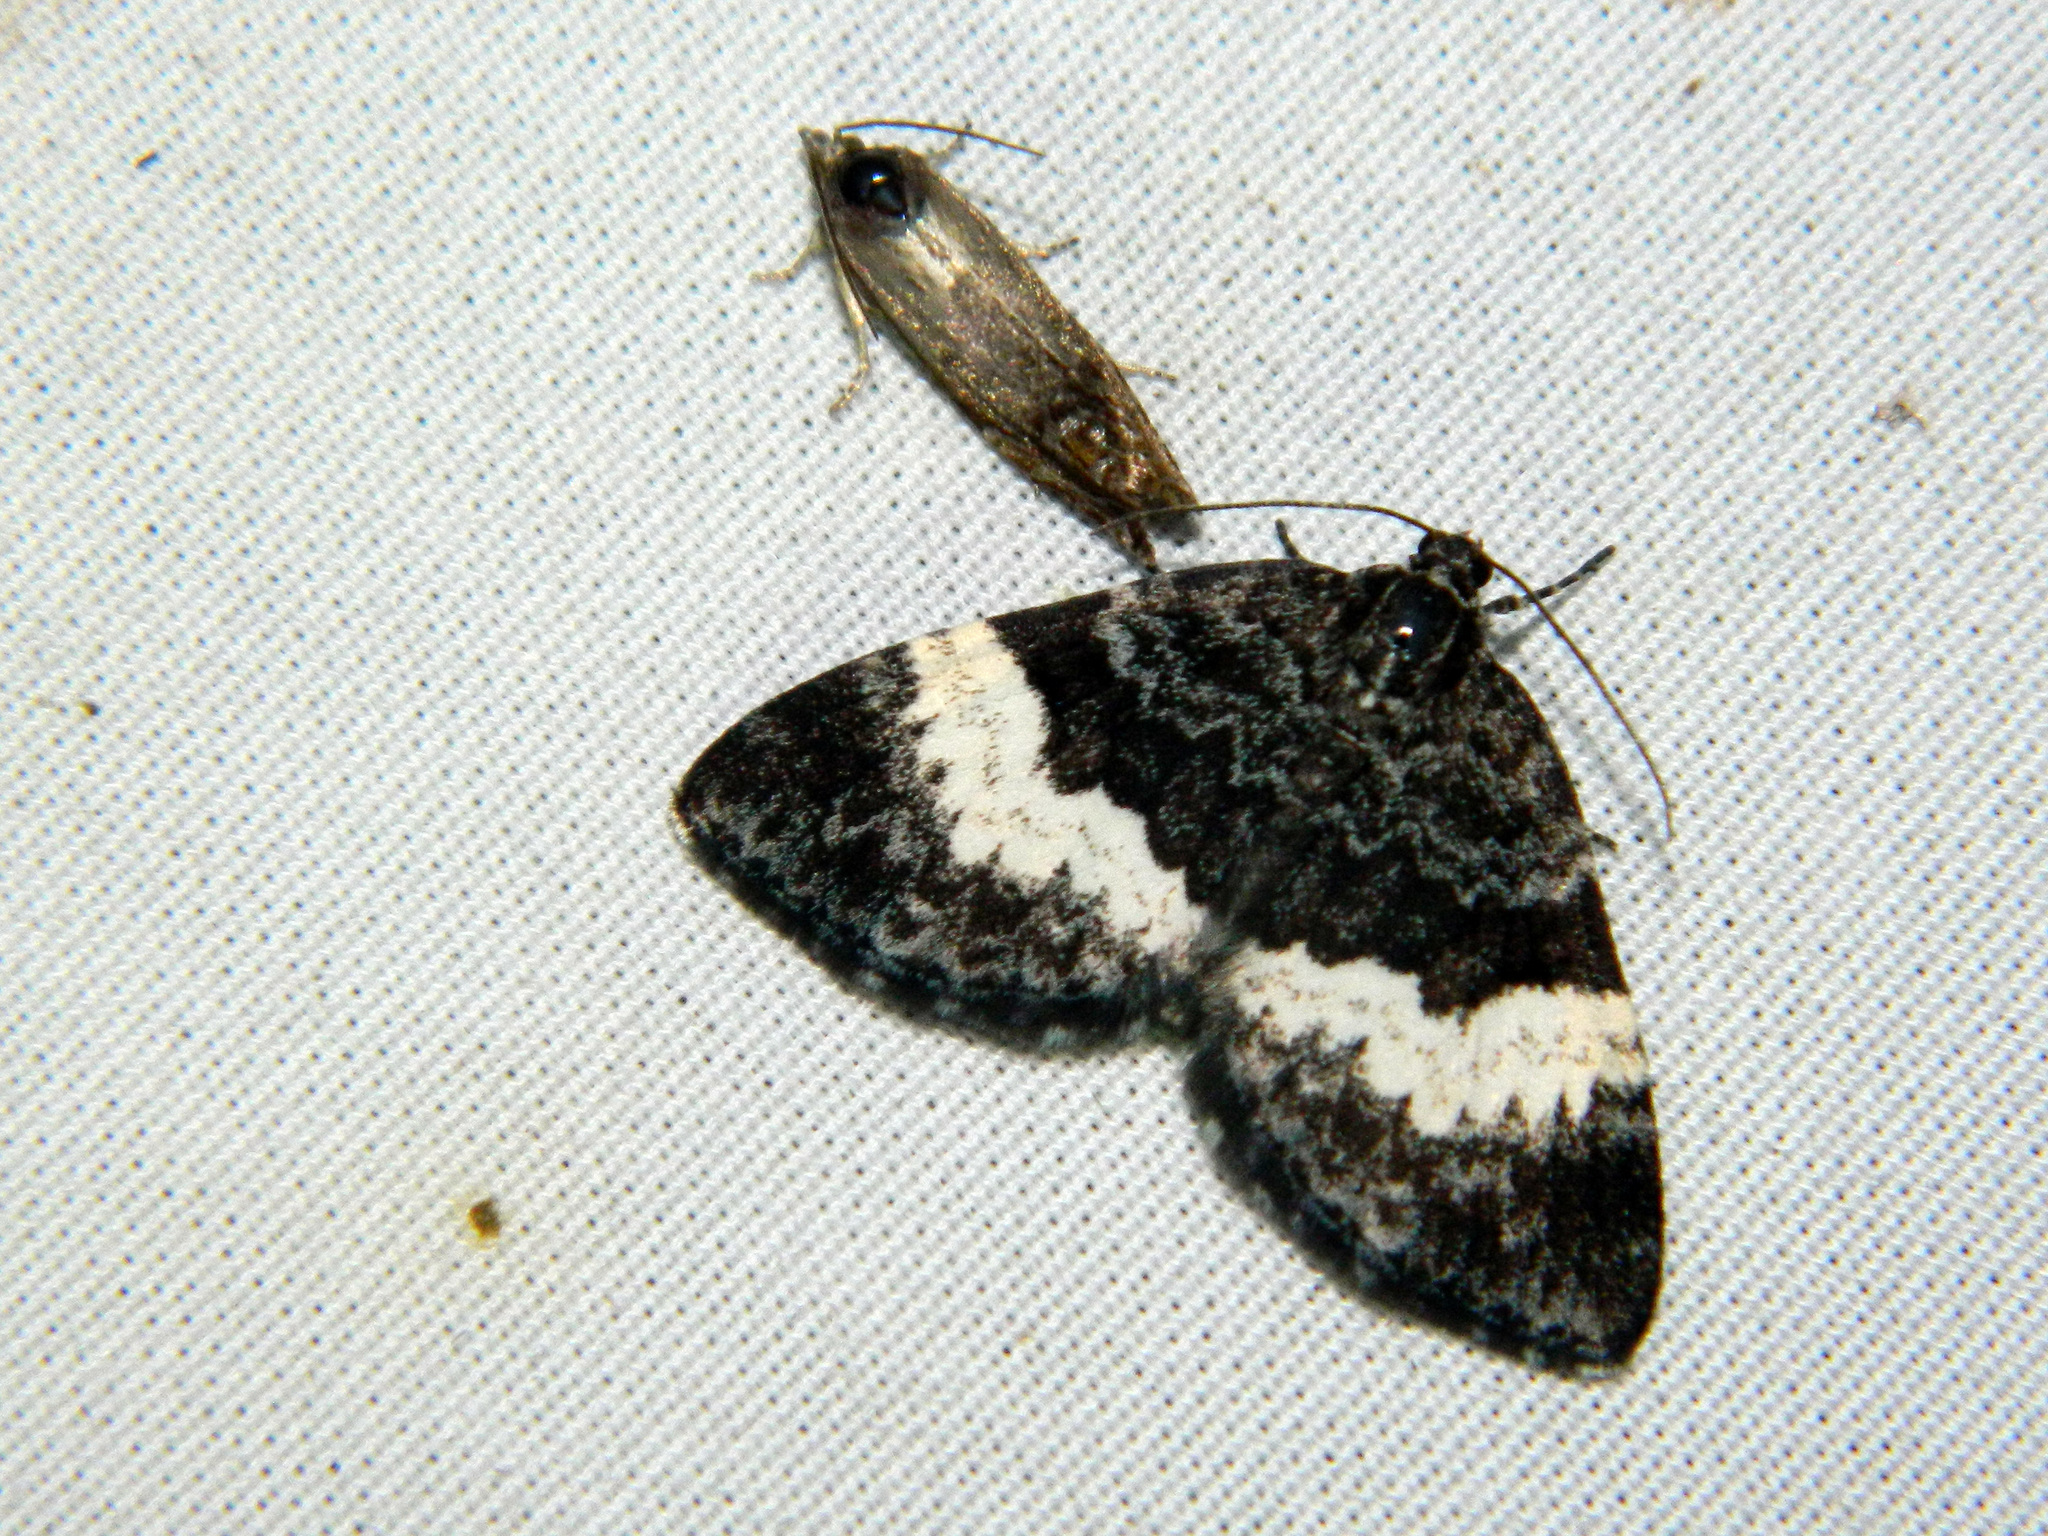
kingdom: Animalia
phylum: Arthropoda
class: Insecta
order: Lepidoptera
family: Geometridae
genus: Spargania
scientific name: Spargania luctuata
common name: White-banded carpet
